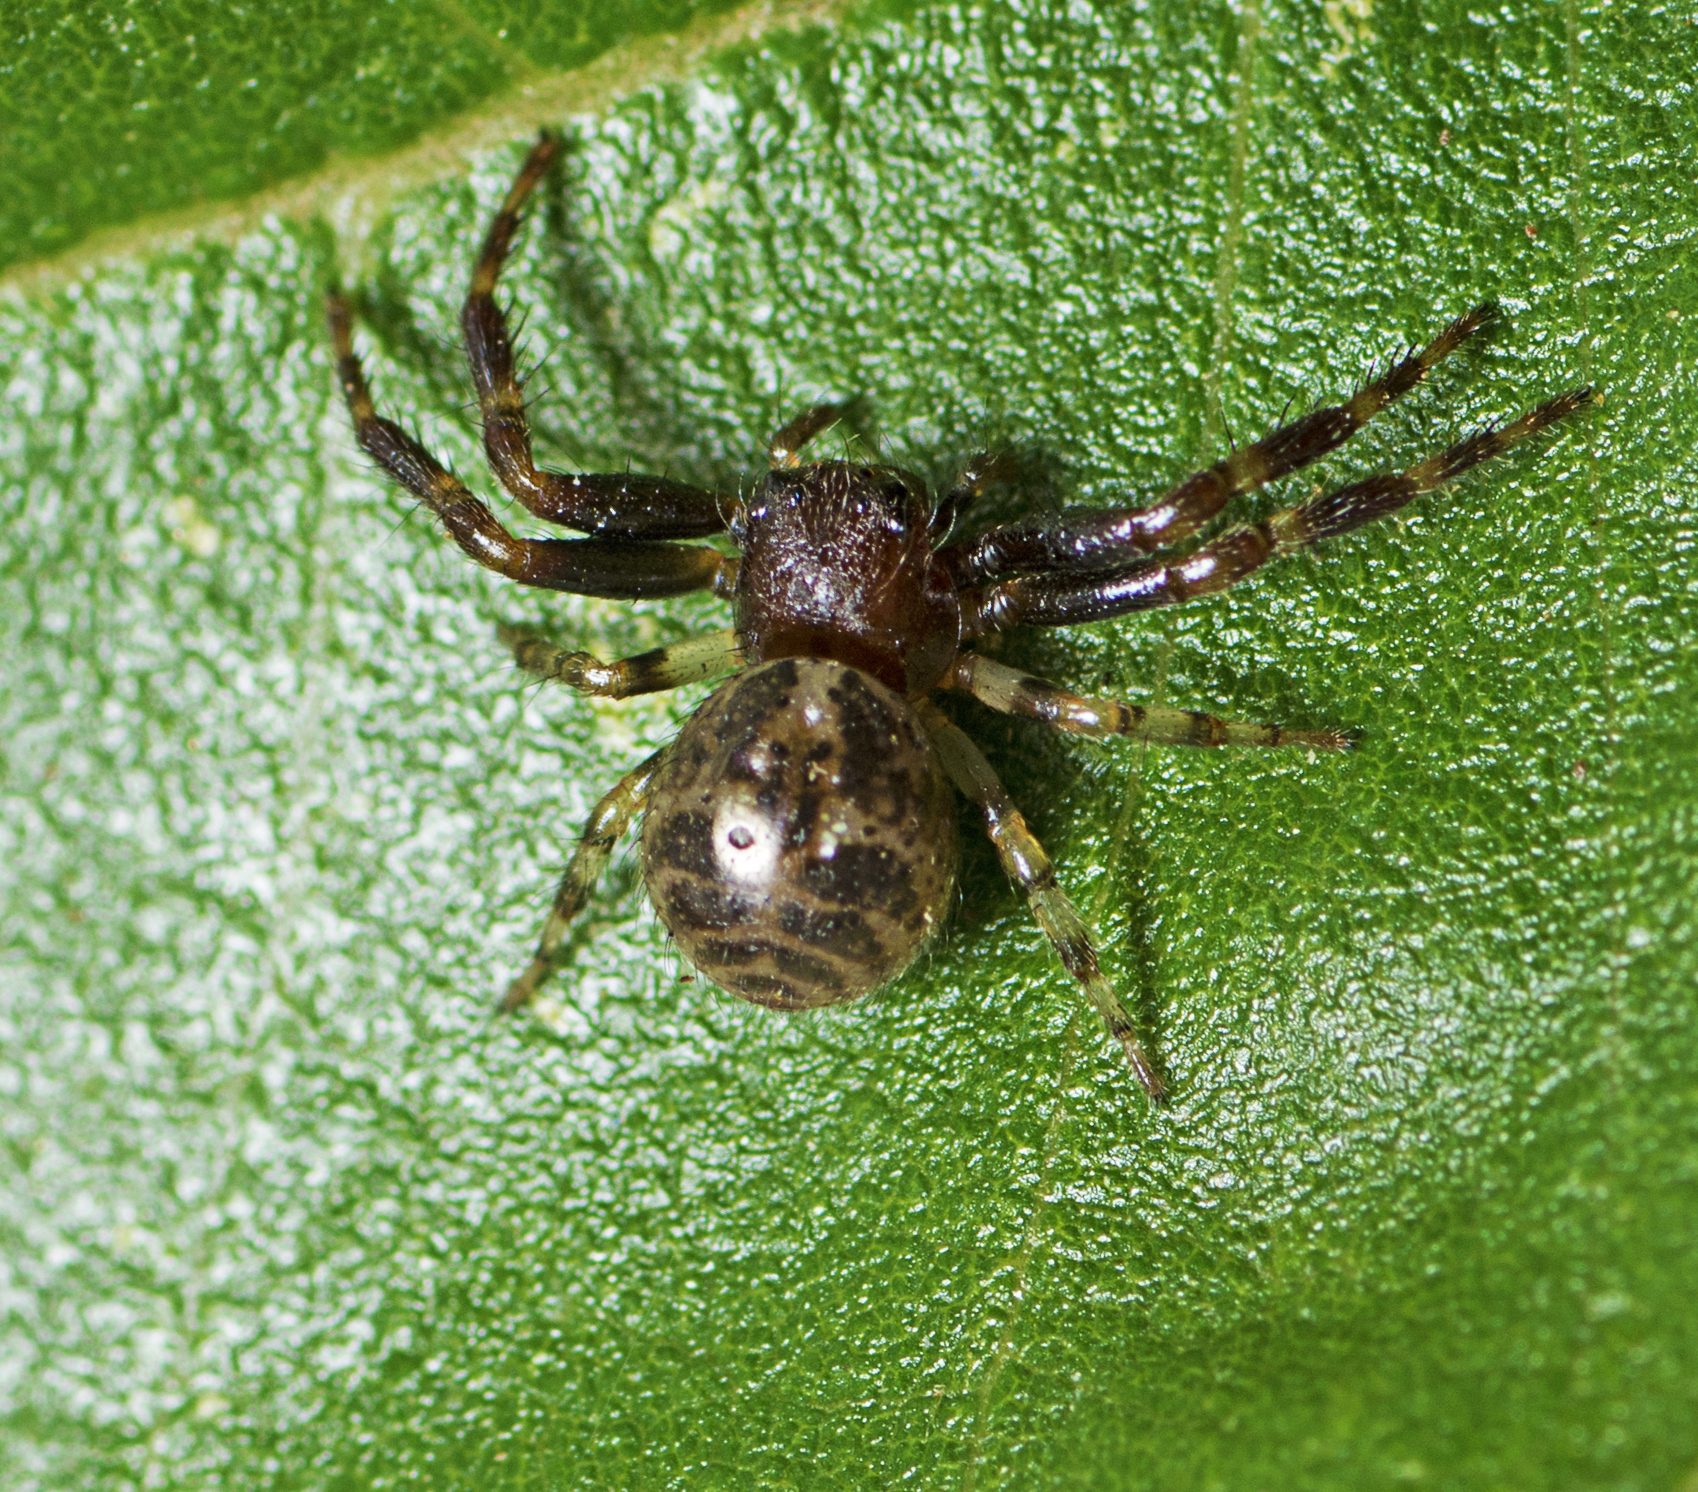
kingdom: Animalia
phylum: Arthropoda
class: Arachnida
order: Araneae
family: Thomisidae
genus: Xysticus
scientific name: Xysticus bimaculatus
